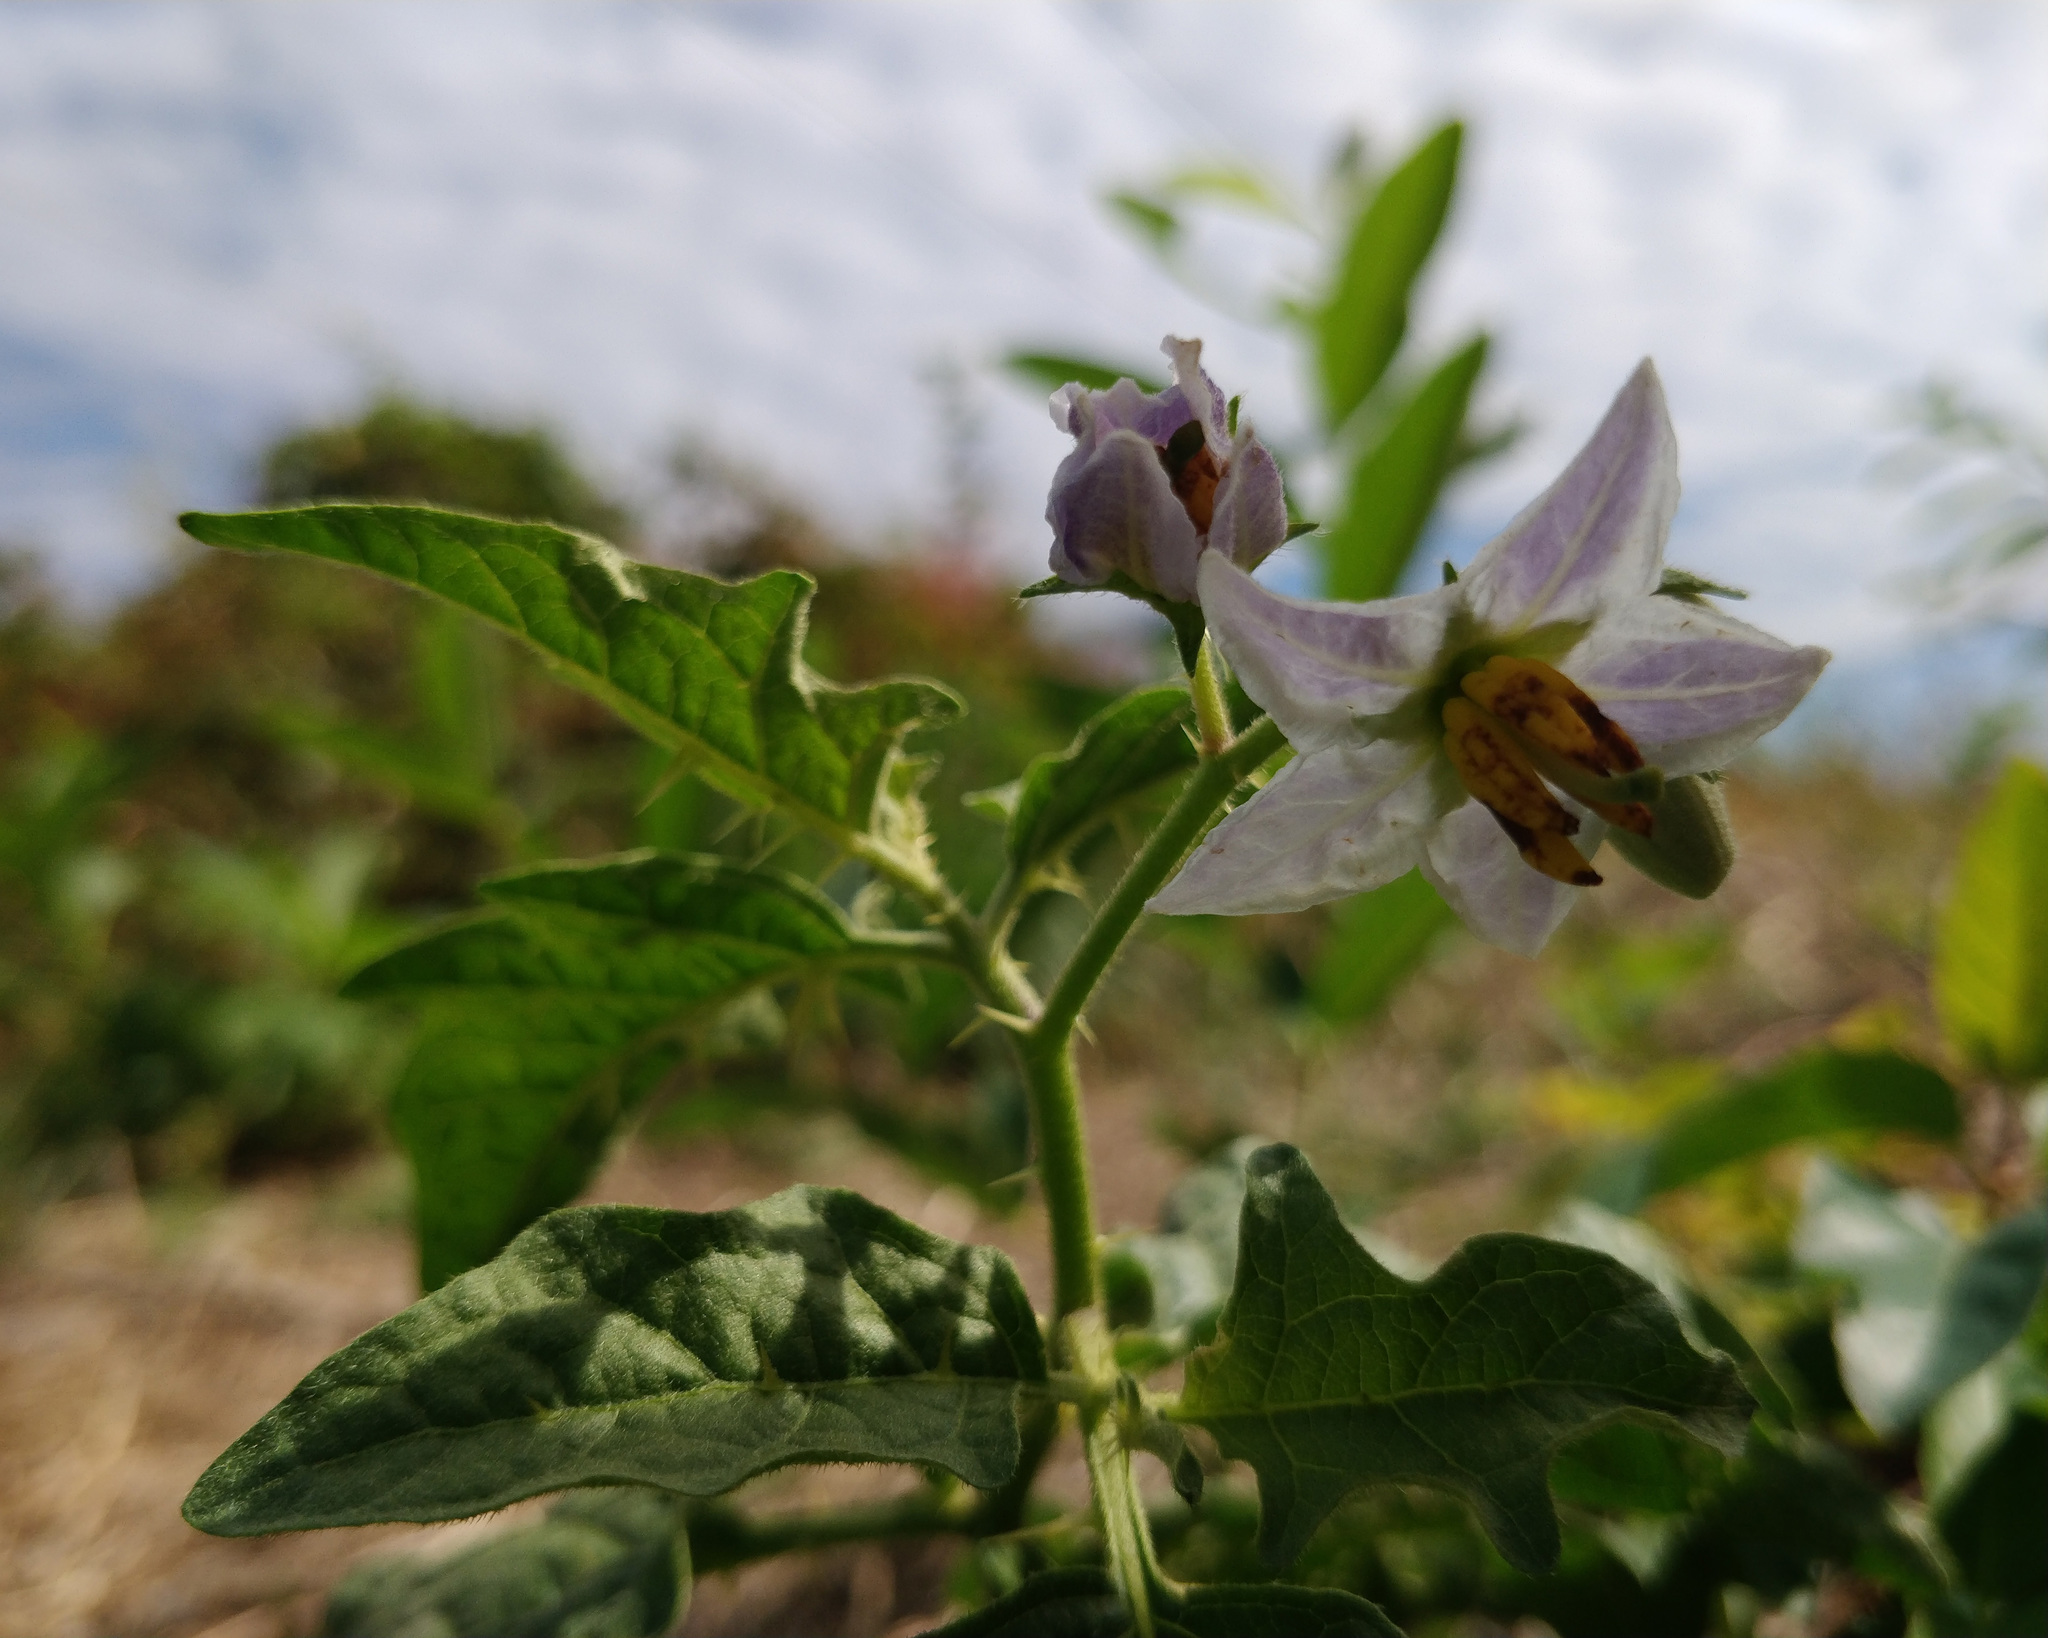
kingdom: Plantae
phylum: Tracheophyta
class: Magnoliopsida
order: Solanales
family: Solanaceae
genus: Solanum
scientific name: Solanum carolinense
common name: Horse-nettle
